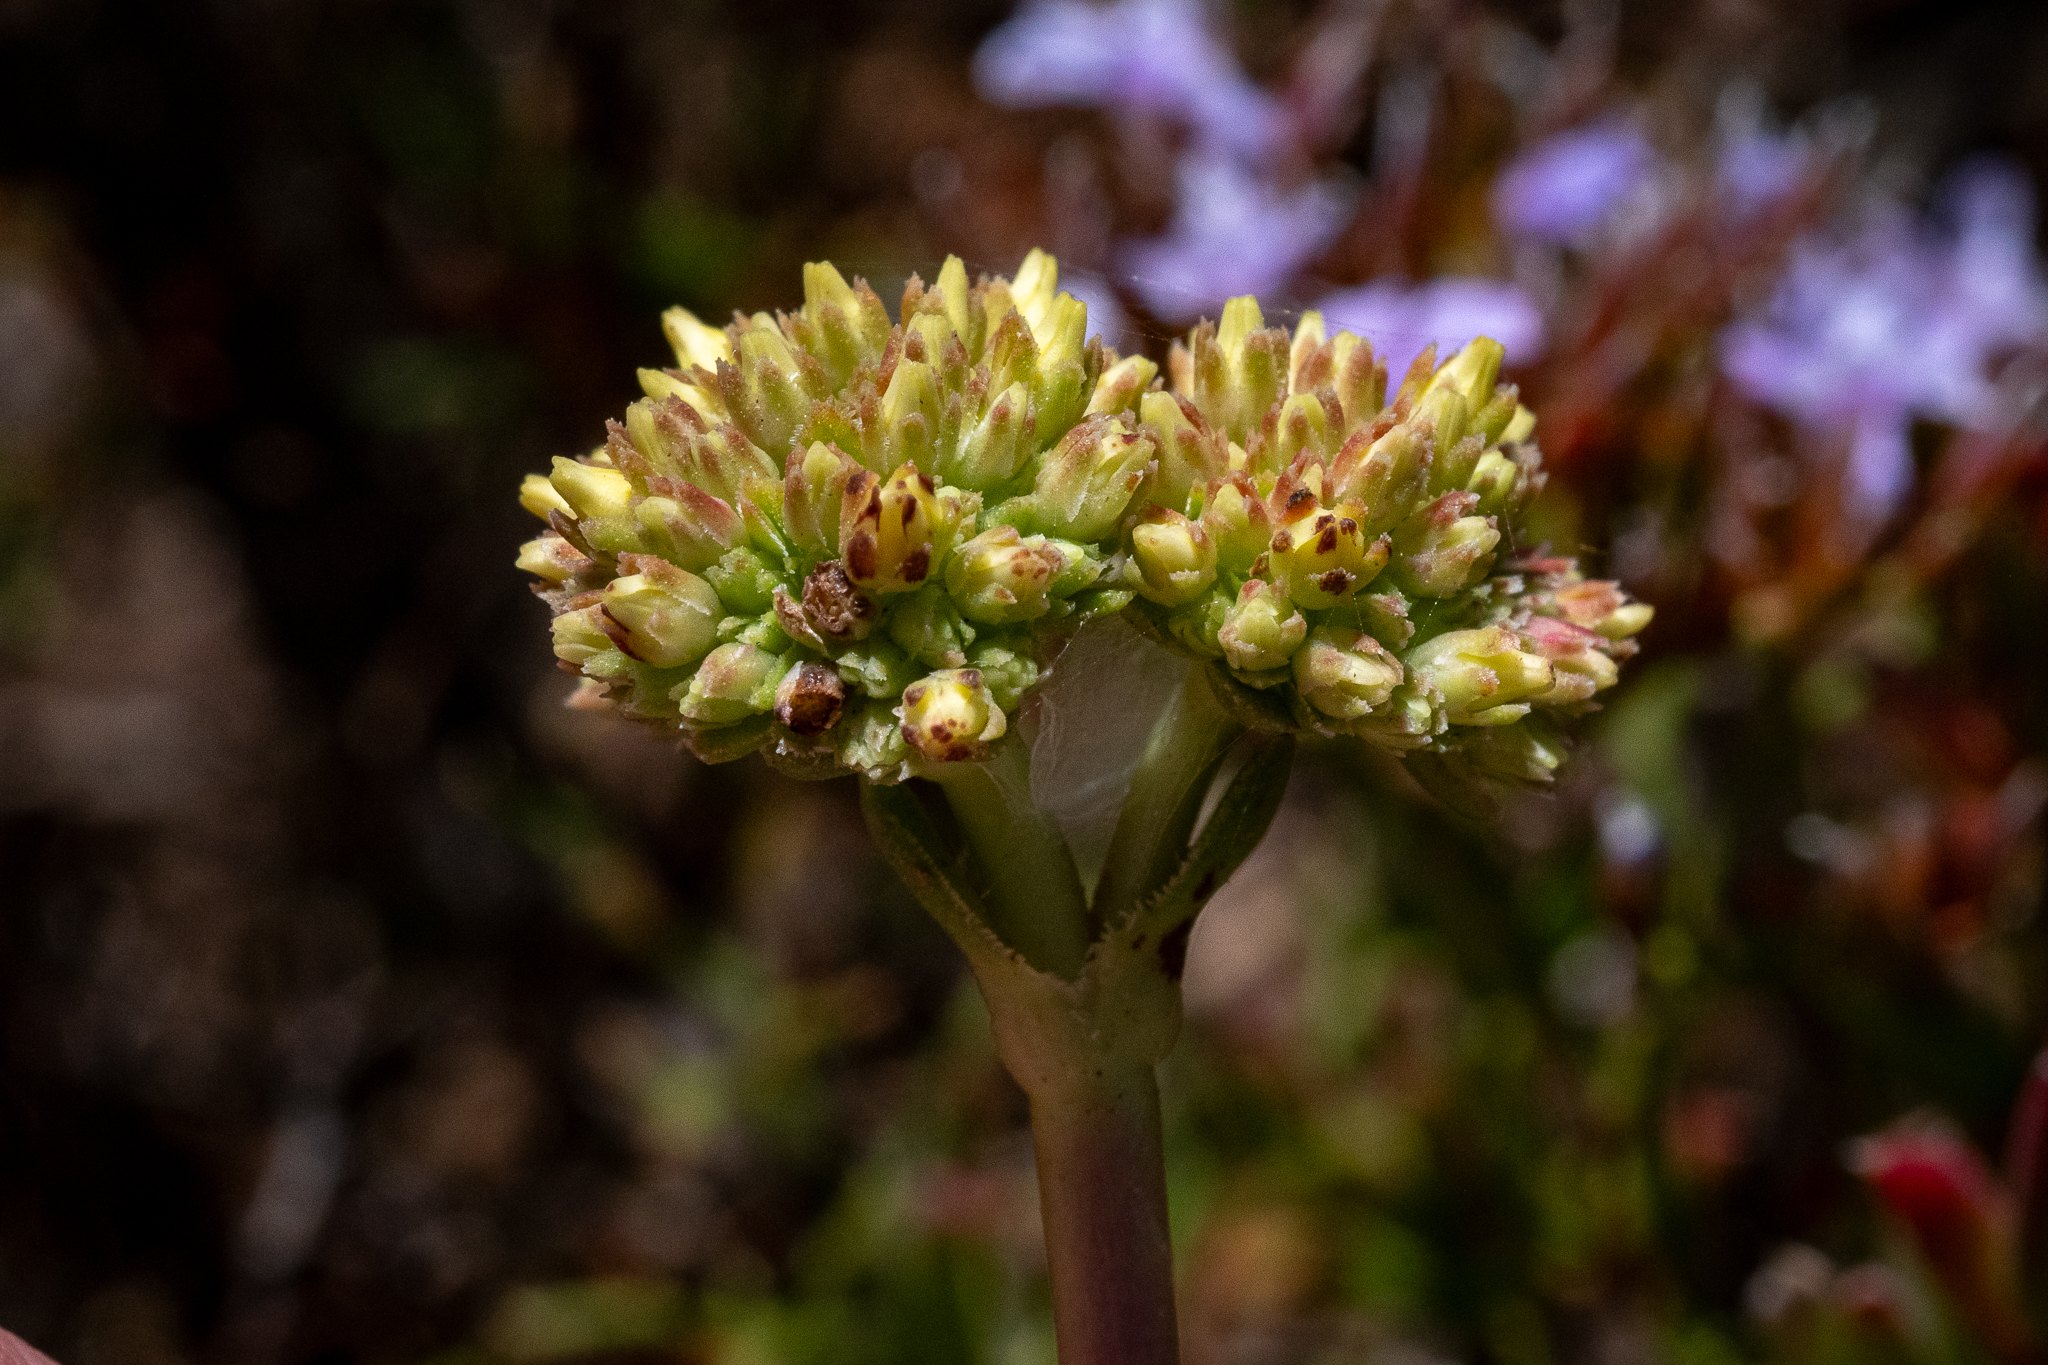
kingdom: Plantae
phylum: Tracheophyta
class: Magnoliopsida
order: Saxifragales
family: Crassulaceae
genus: Crassula
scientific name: Crassula ciliata
